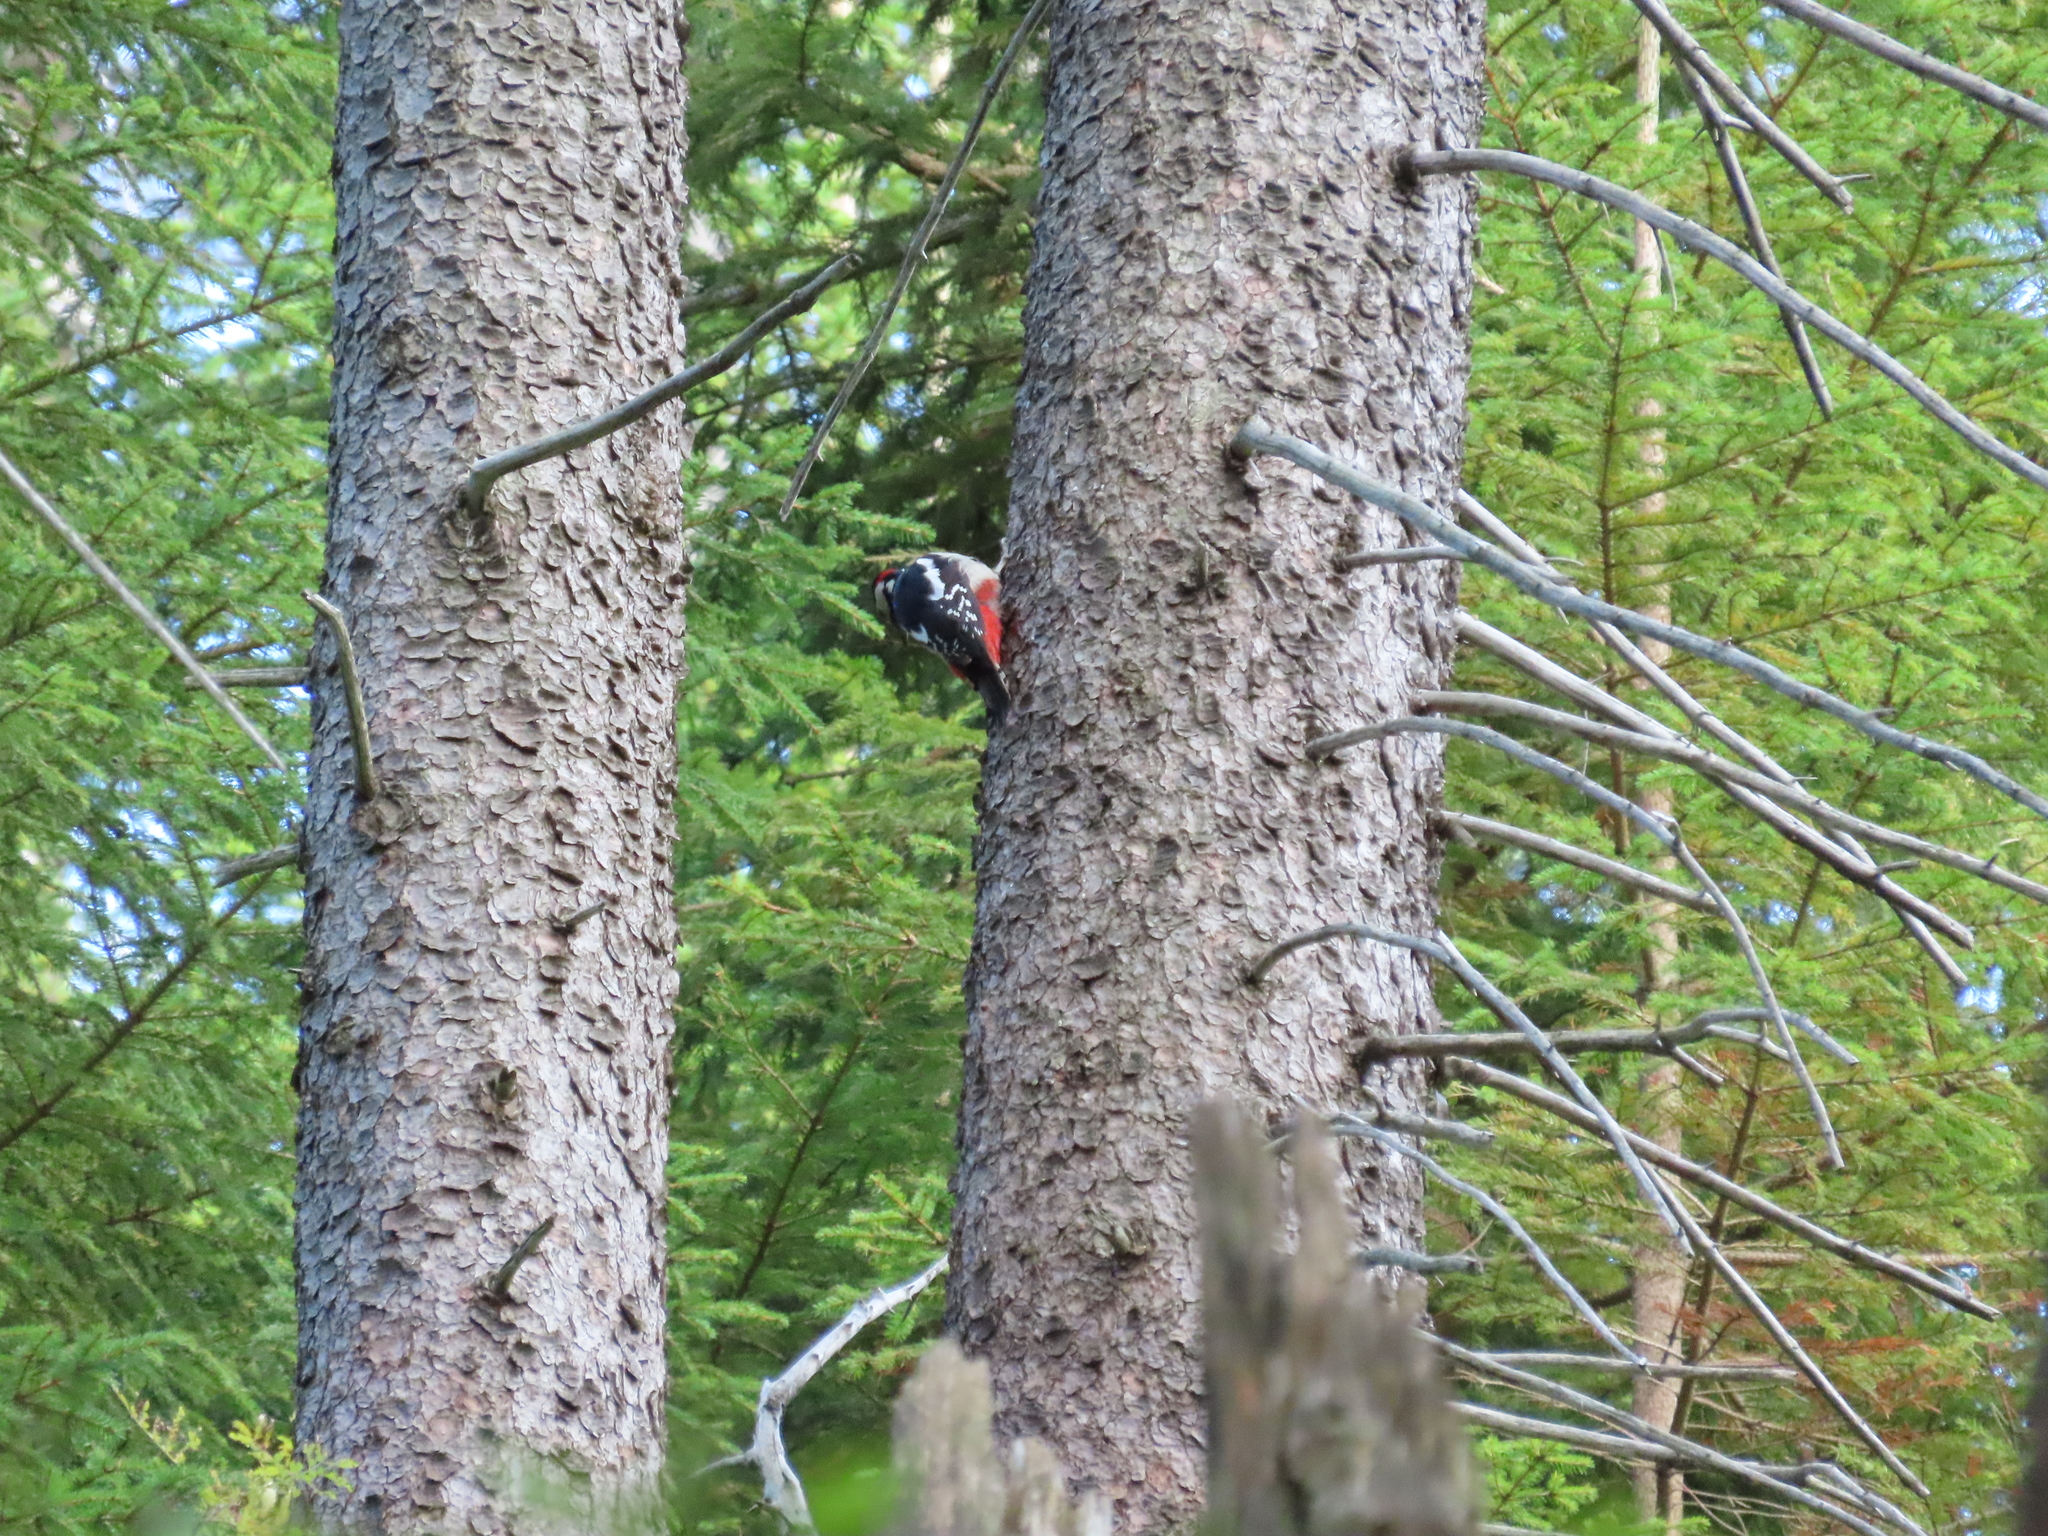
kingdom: Animalia
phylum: Chordata
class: Aves
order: Piciformes
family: Picidae
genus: Dendrocopos
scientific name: Dendrocopos major
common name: Great spotted woodpecker
